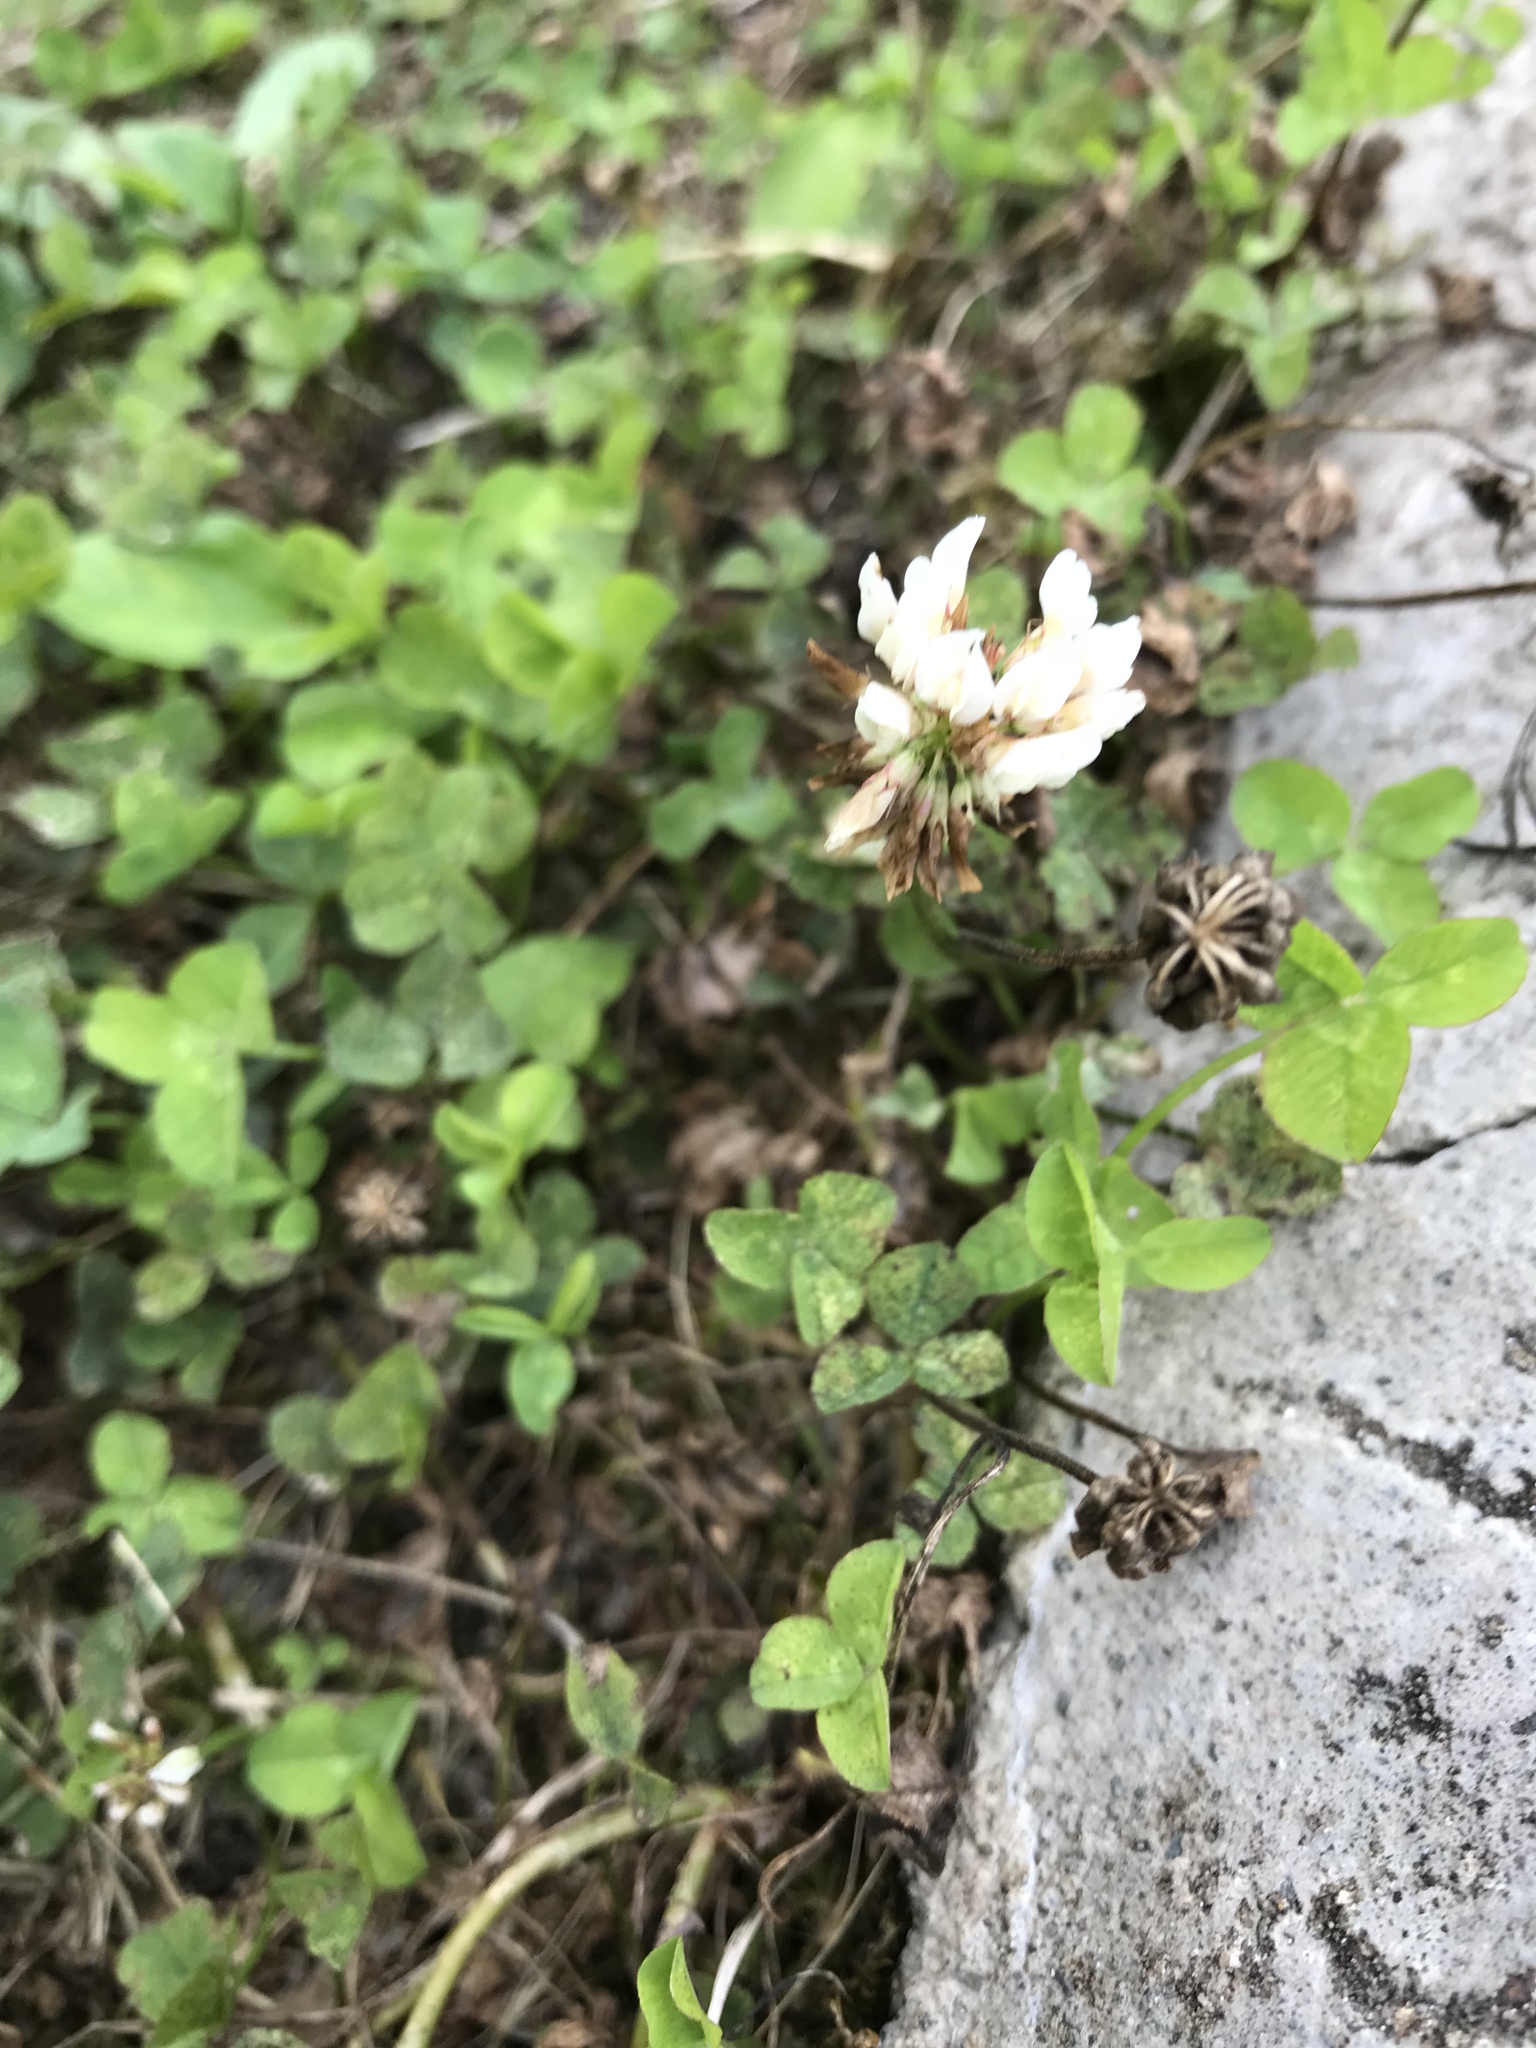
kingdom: Plantae
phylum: Tracheophyta
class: Magnoliopsida
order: Fabales
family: Fabaceae
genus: Trifolium
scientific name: Trifolium repens
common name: White clover
